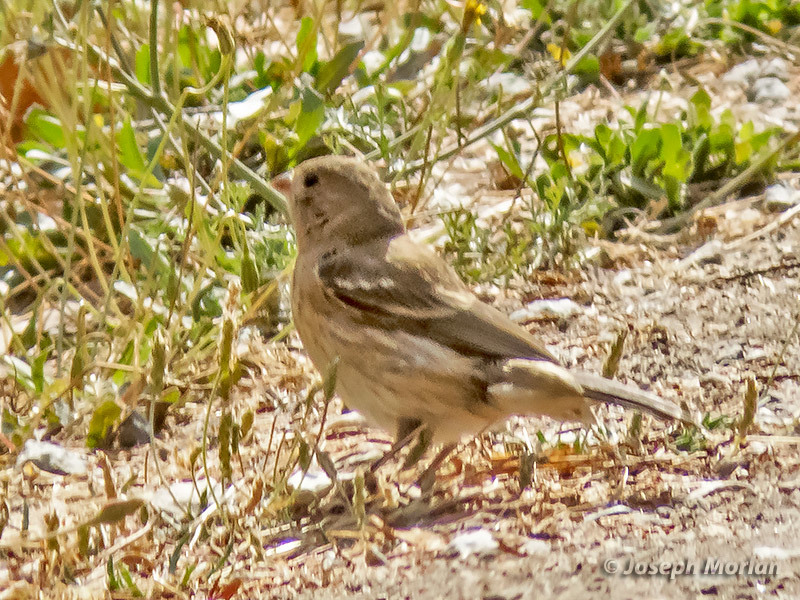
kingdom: Animalia
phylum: Chordata
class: Aves
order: Passeriformes
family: Cardinalidae
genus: Passerina
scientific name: Passerina amoena
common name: Lazuli bunting
